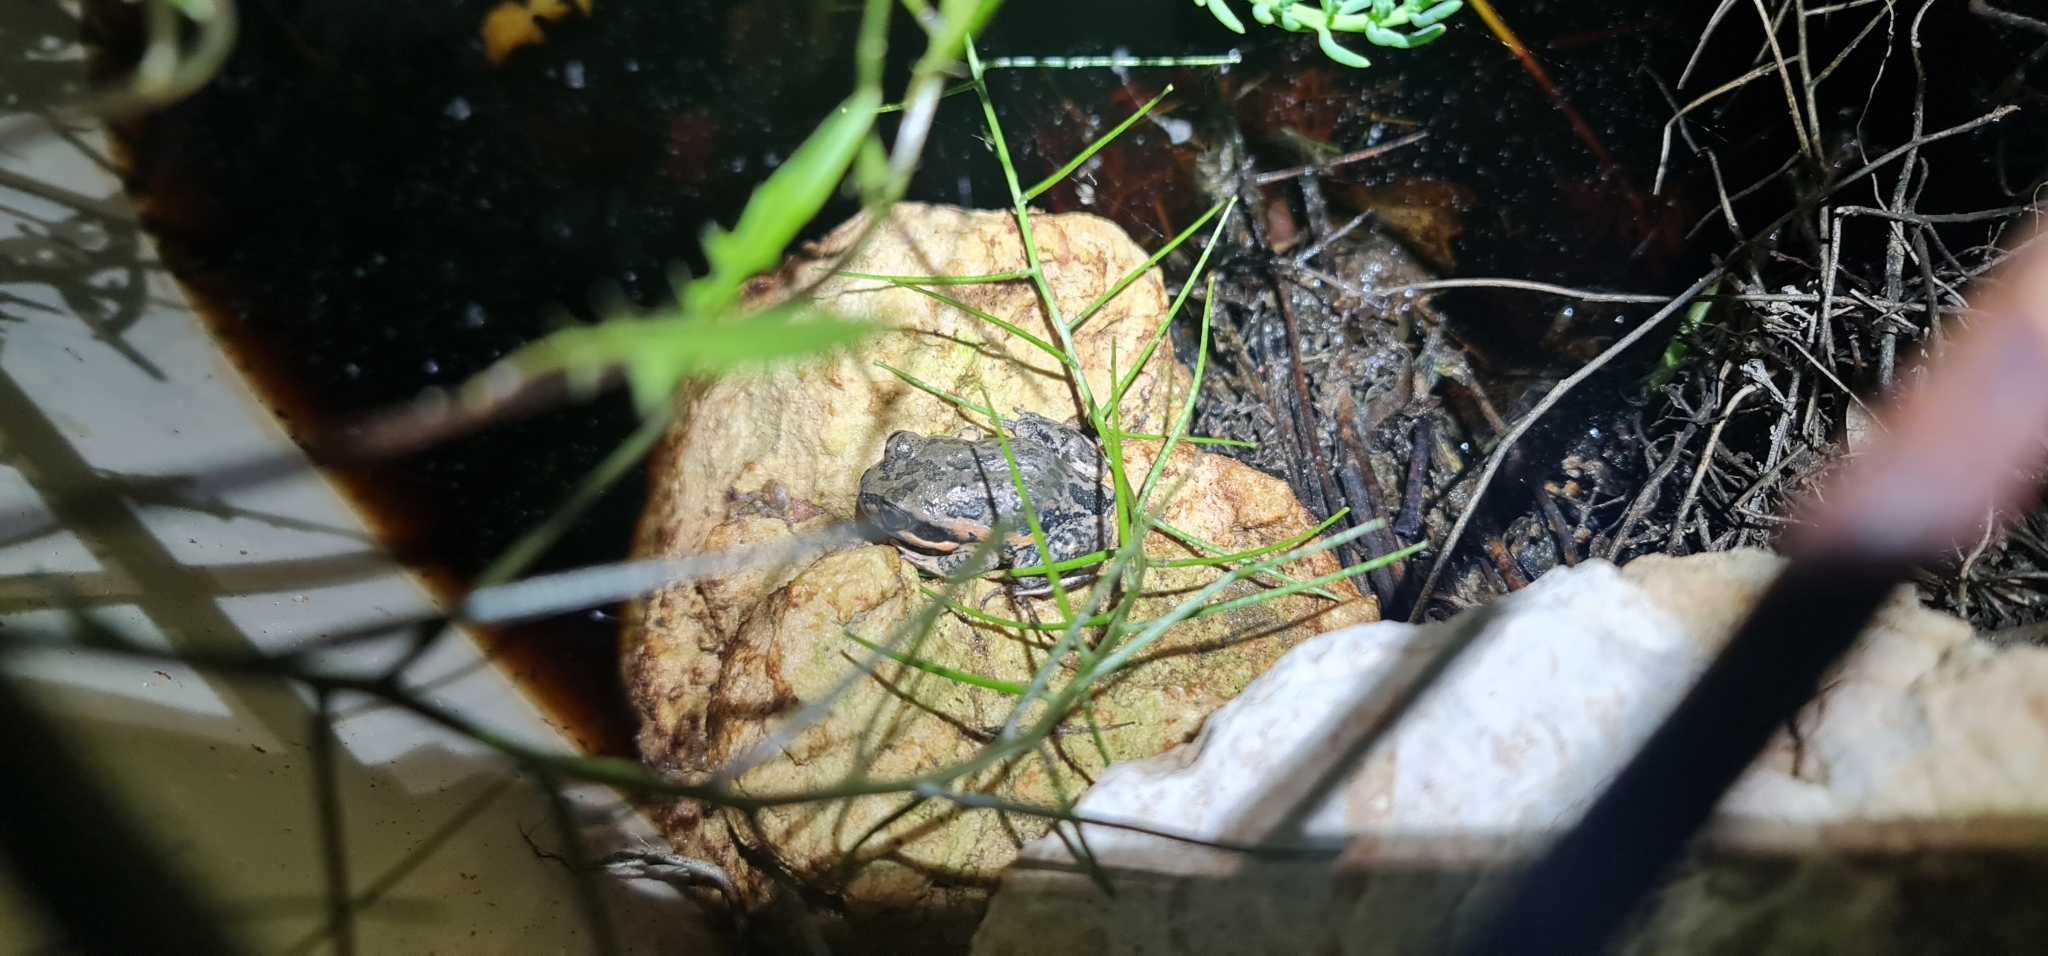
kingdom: Animalia
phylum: Chordata
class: Amphibia
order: Anura
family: Limnodynastidae
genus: Limnodynastes
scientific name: Limnodynastes dumerilii
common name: Banjo frog
